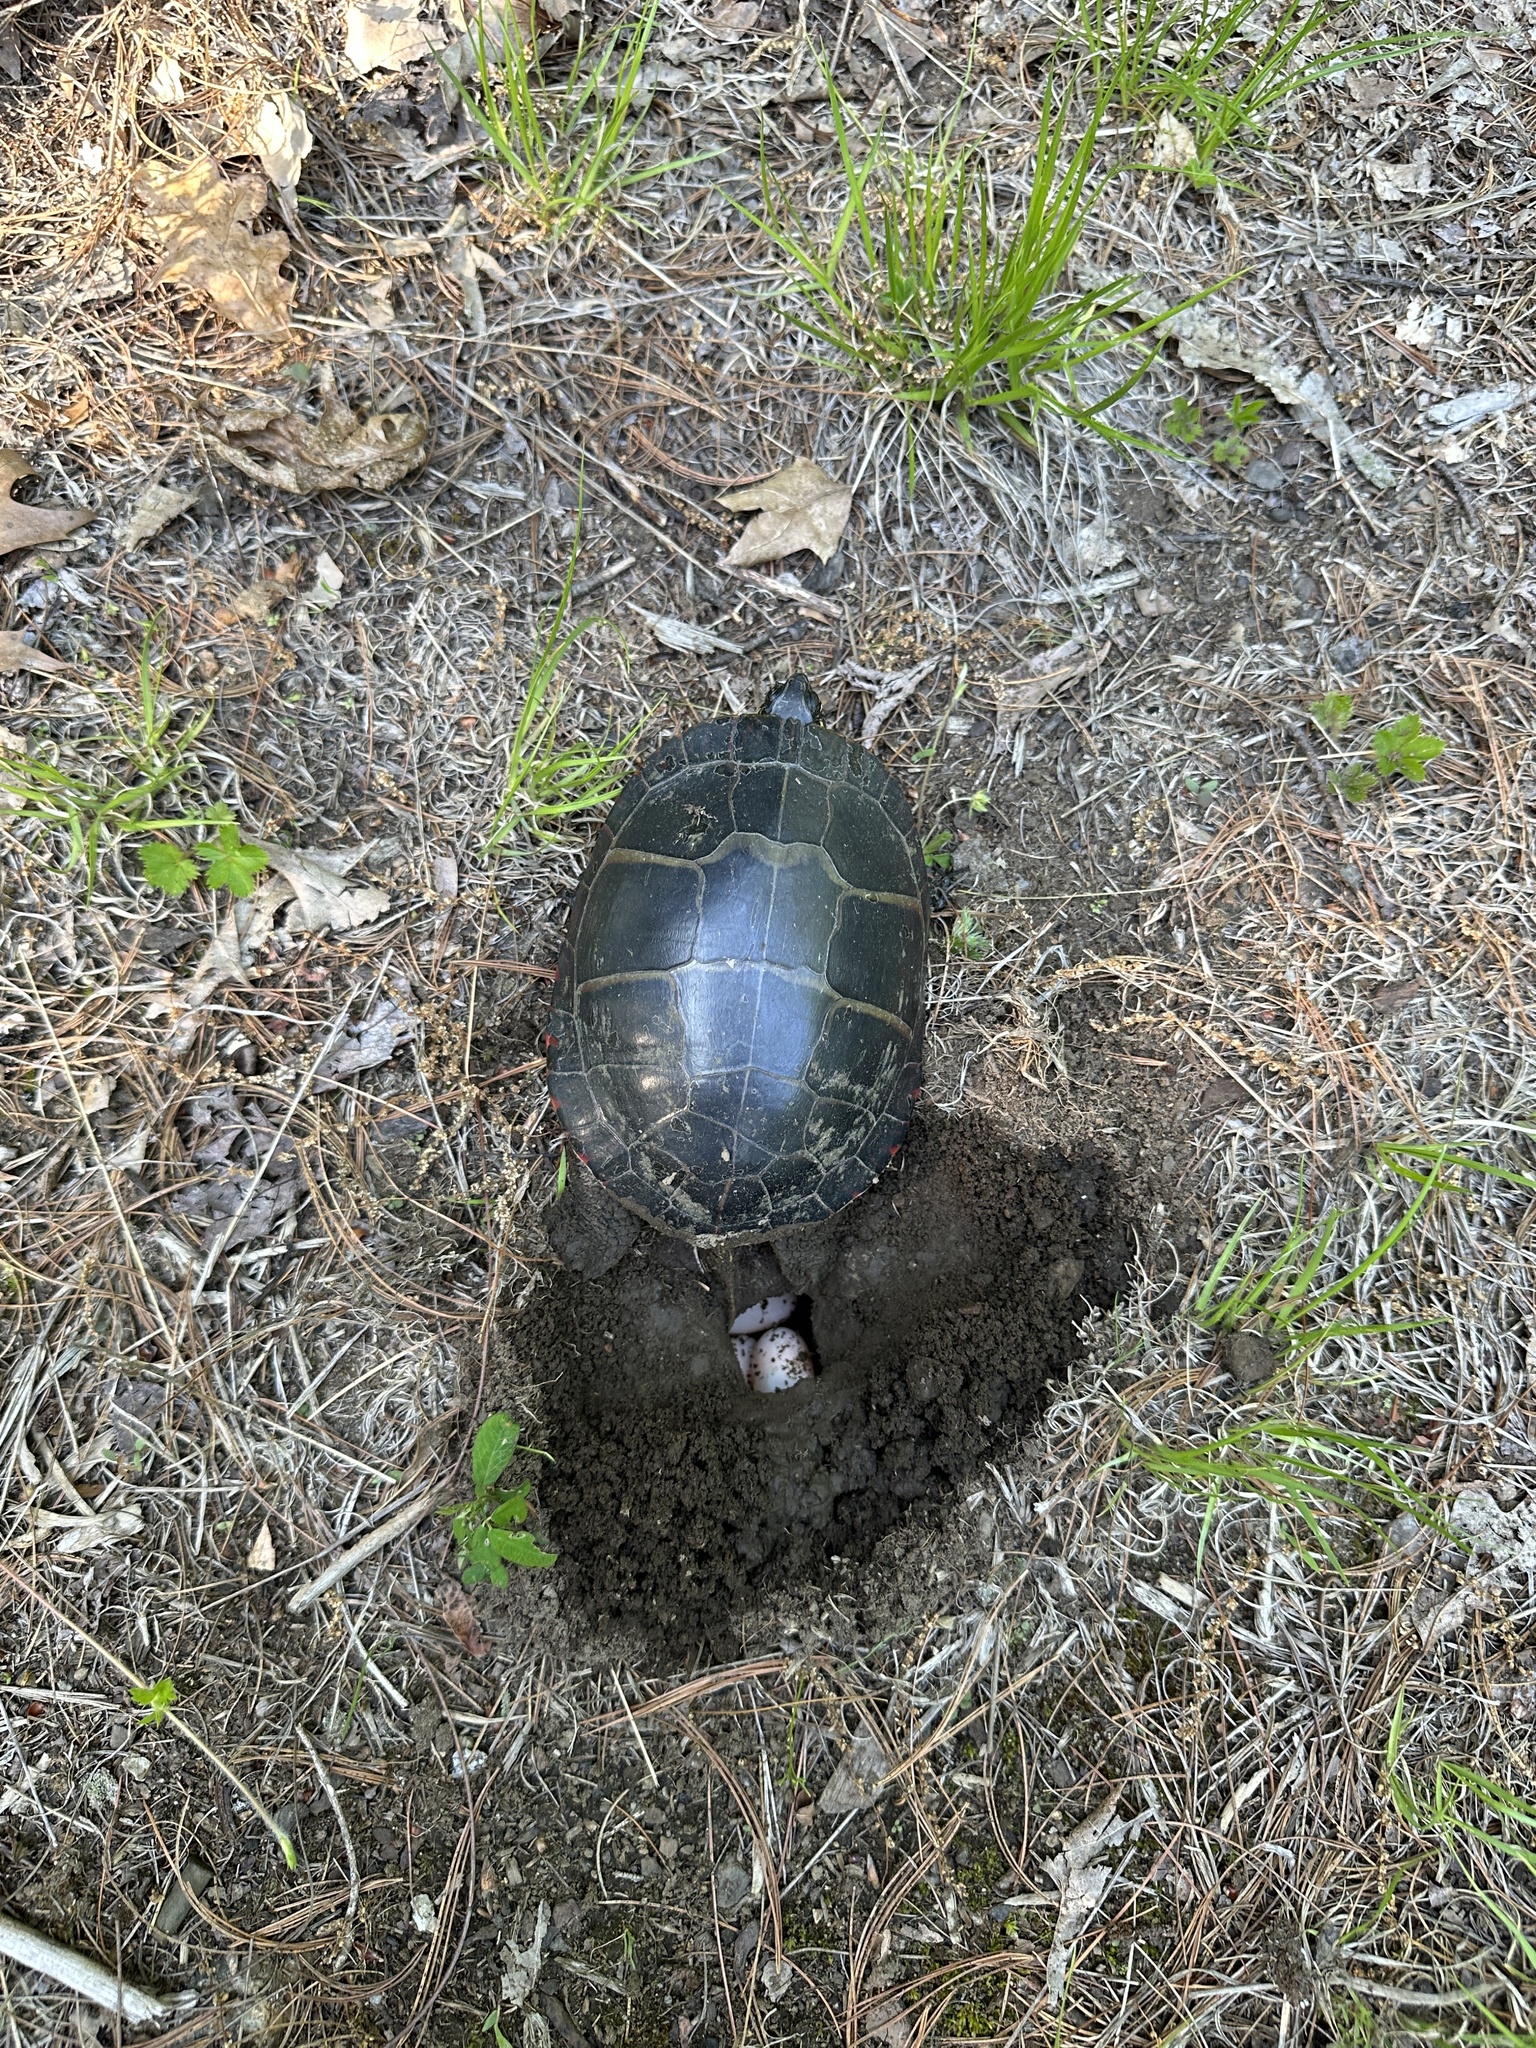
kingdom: Animalia
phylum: Chordata
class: Testudines
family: Emydidae
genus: Chrysemys
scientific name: Chrysemys picta
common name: Painted turtle
